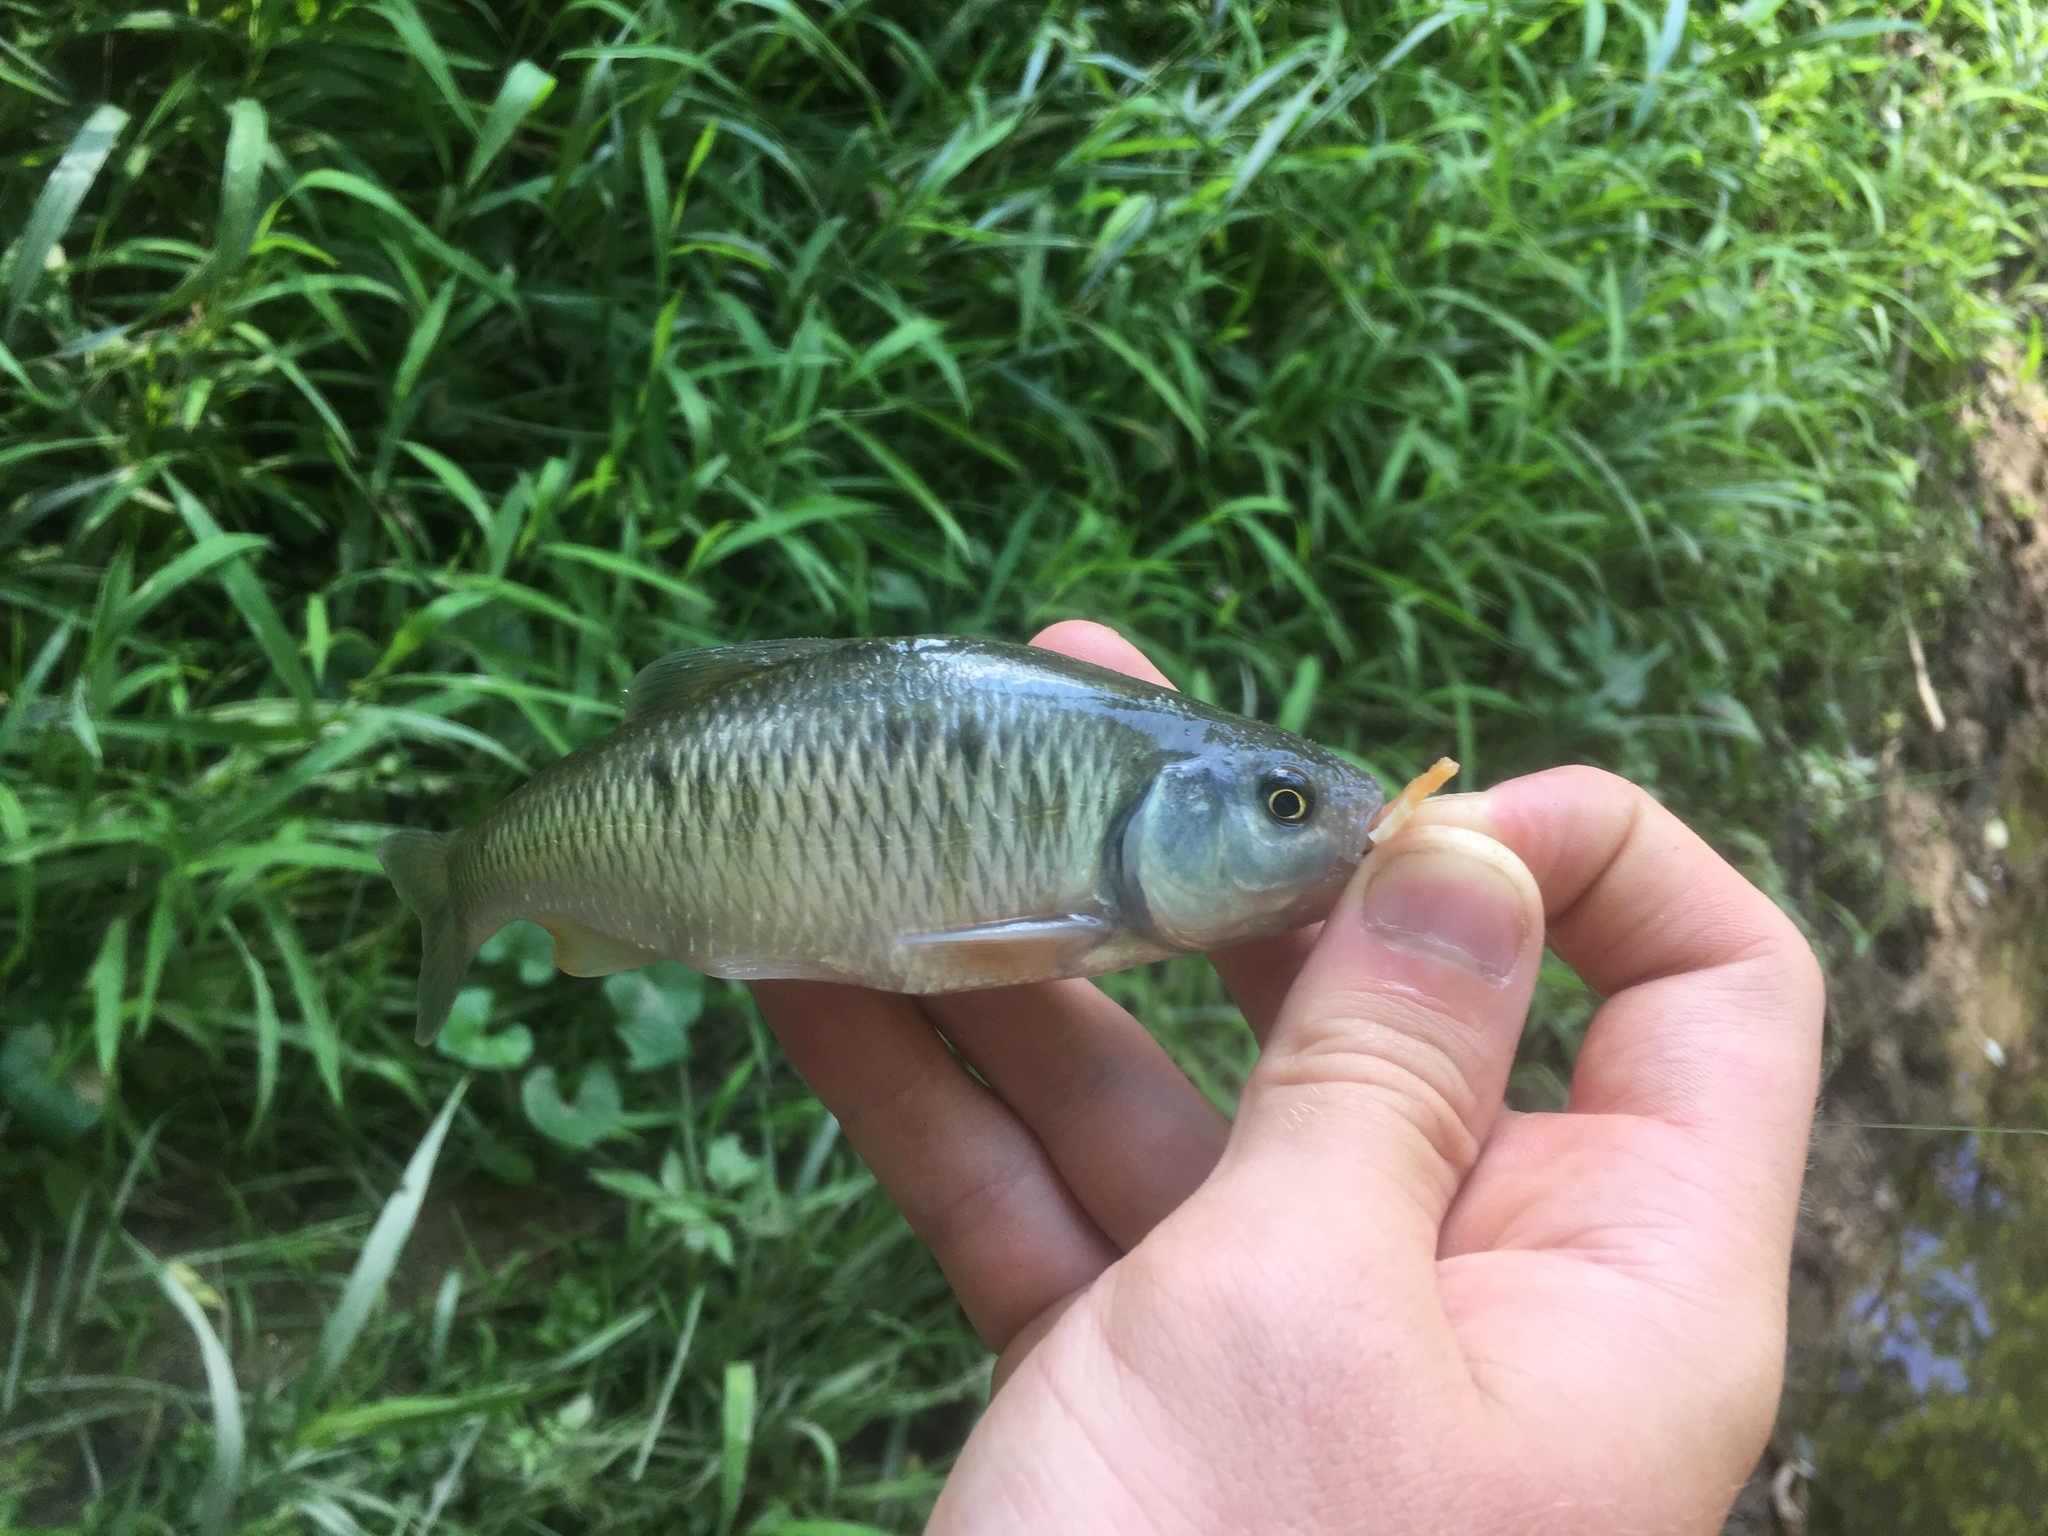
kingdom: Animalia
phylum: Chordata
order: Cypriniformes
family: Cyprinidae
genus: Luxilus
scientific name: Luxilus cornutus
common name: Common shiner
